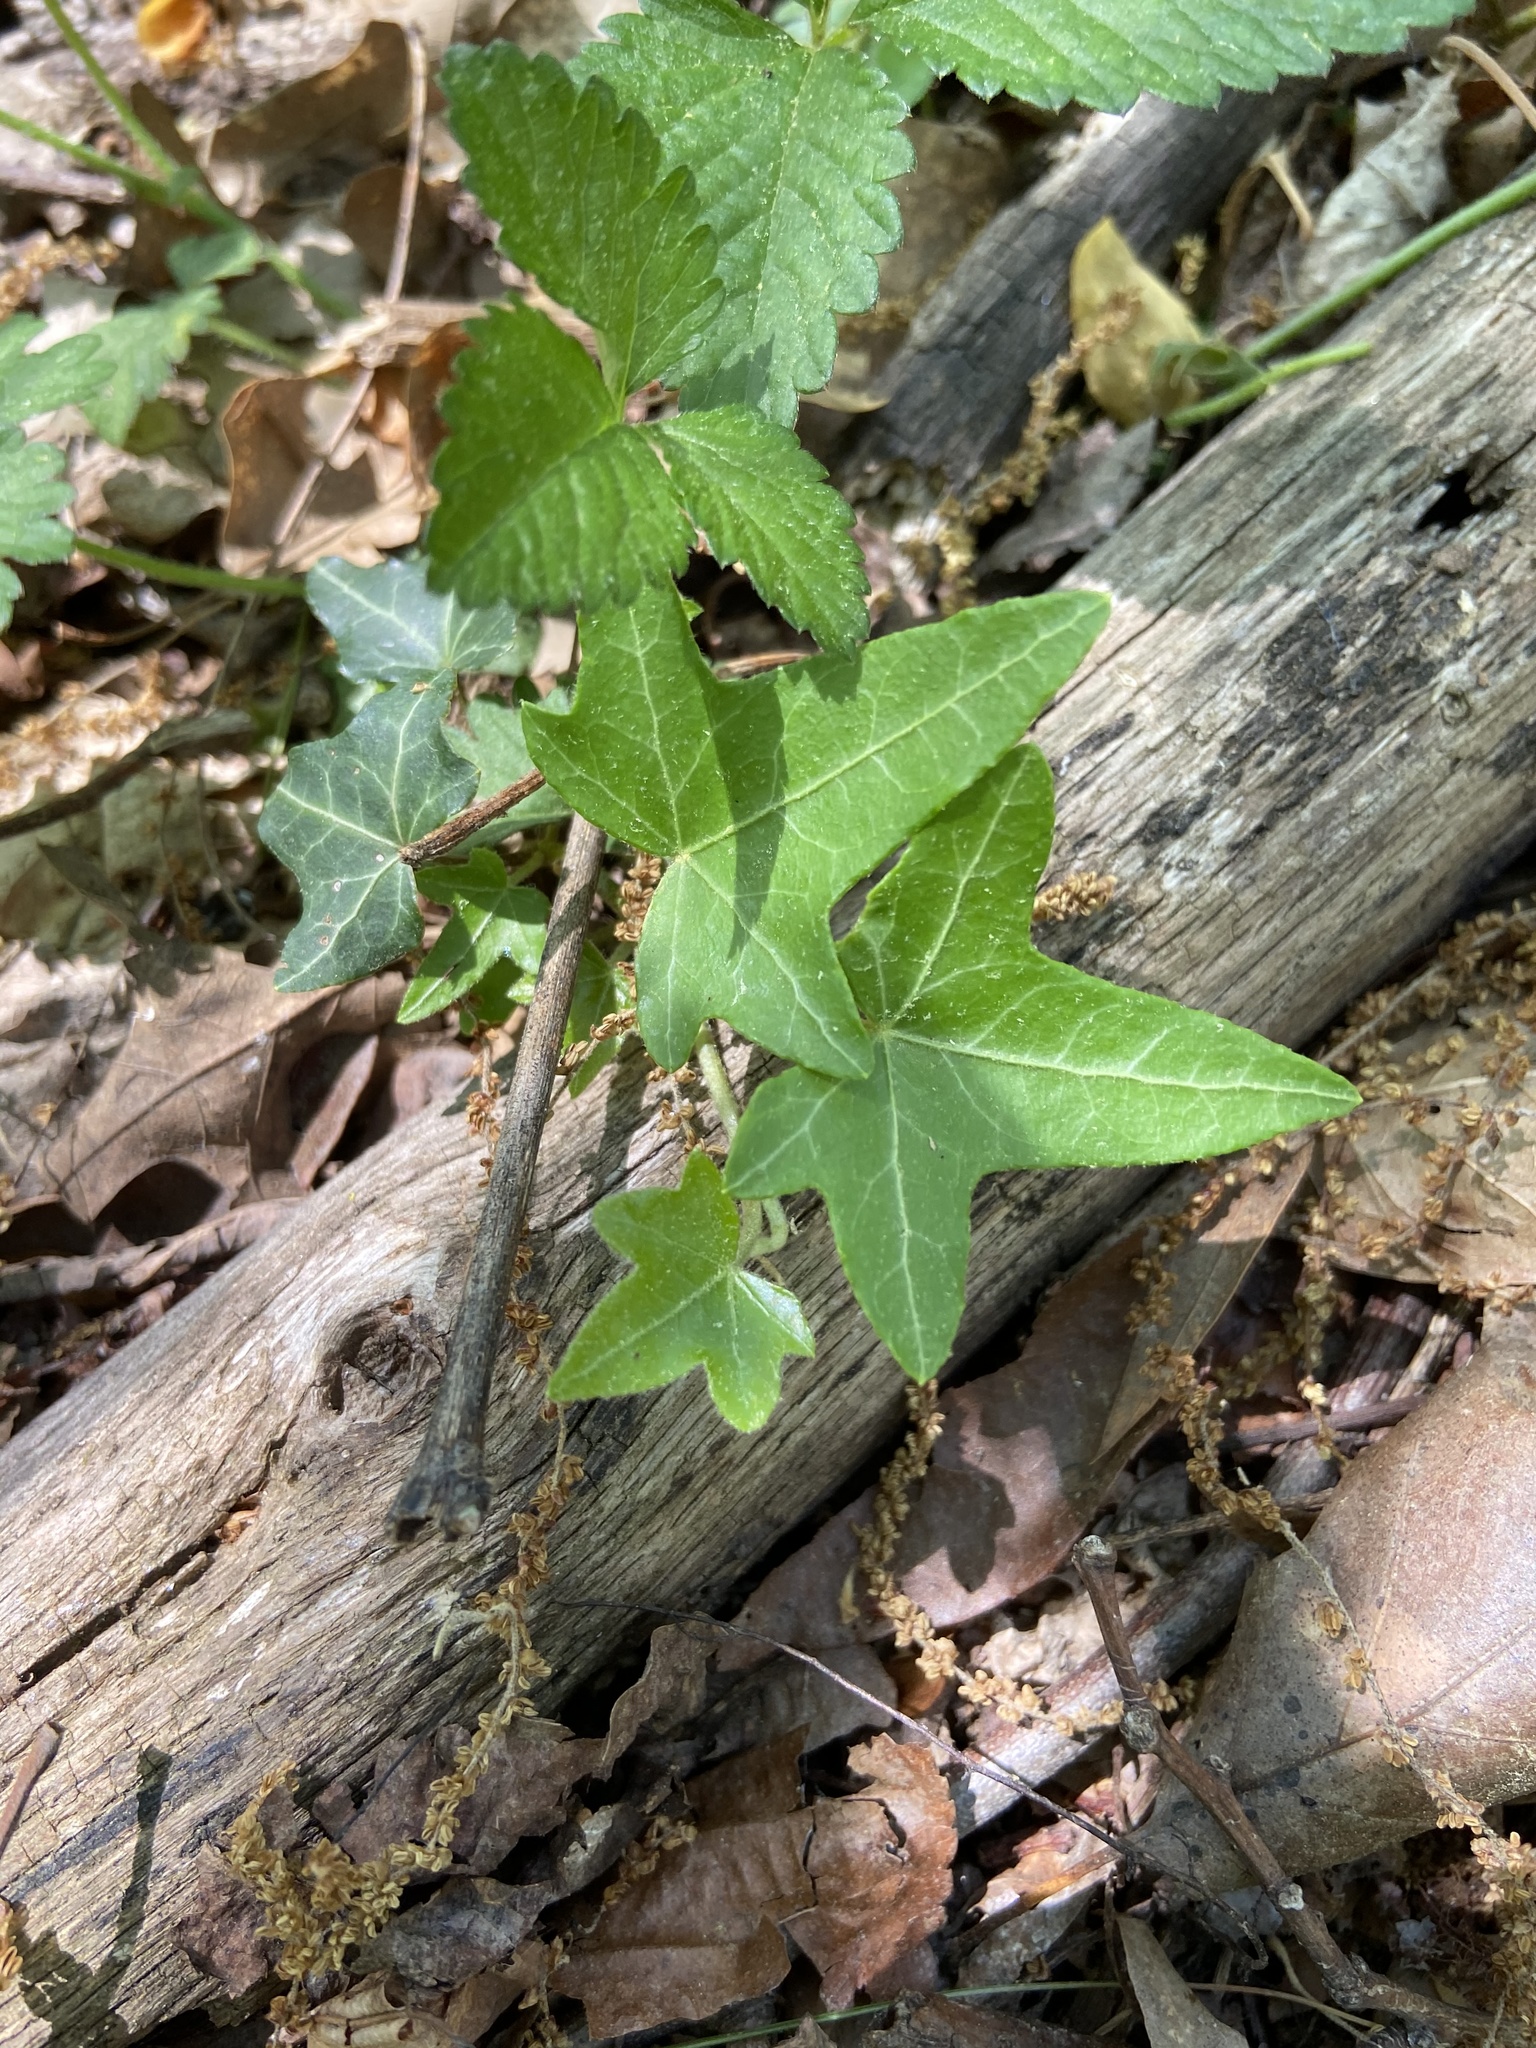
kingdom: Plantae
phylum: Tracheophyta
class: Magnoliopsida
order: Apiales
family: Araliaceae
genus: Hedera
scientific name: Hedera helix
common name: Ivy
